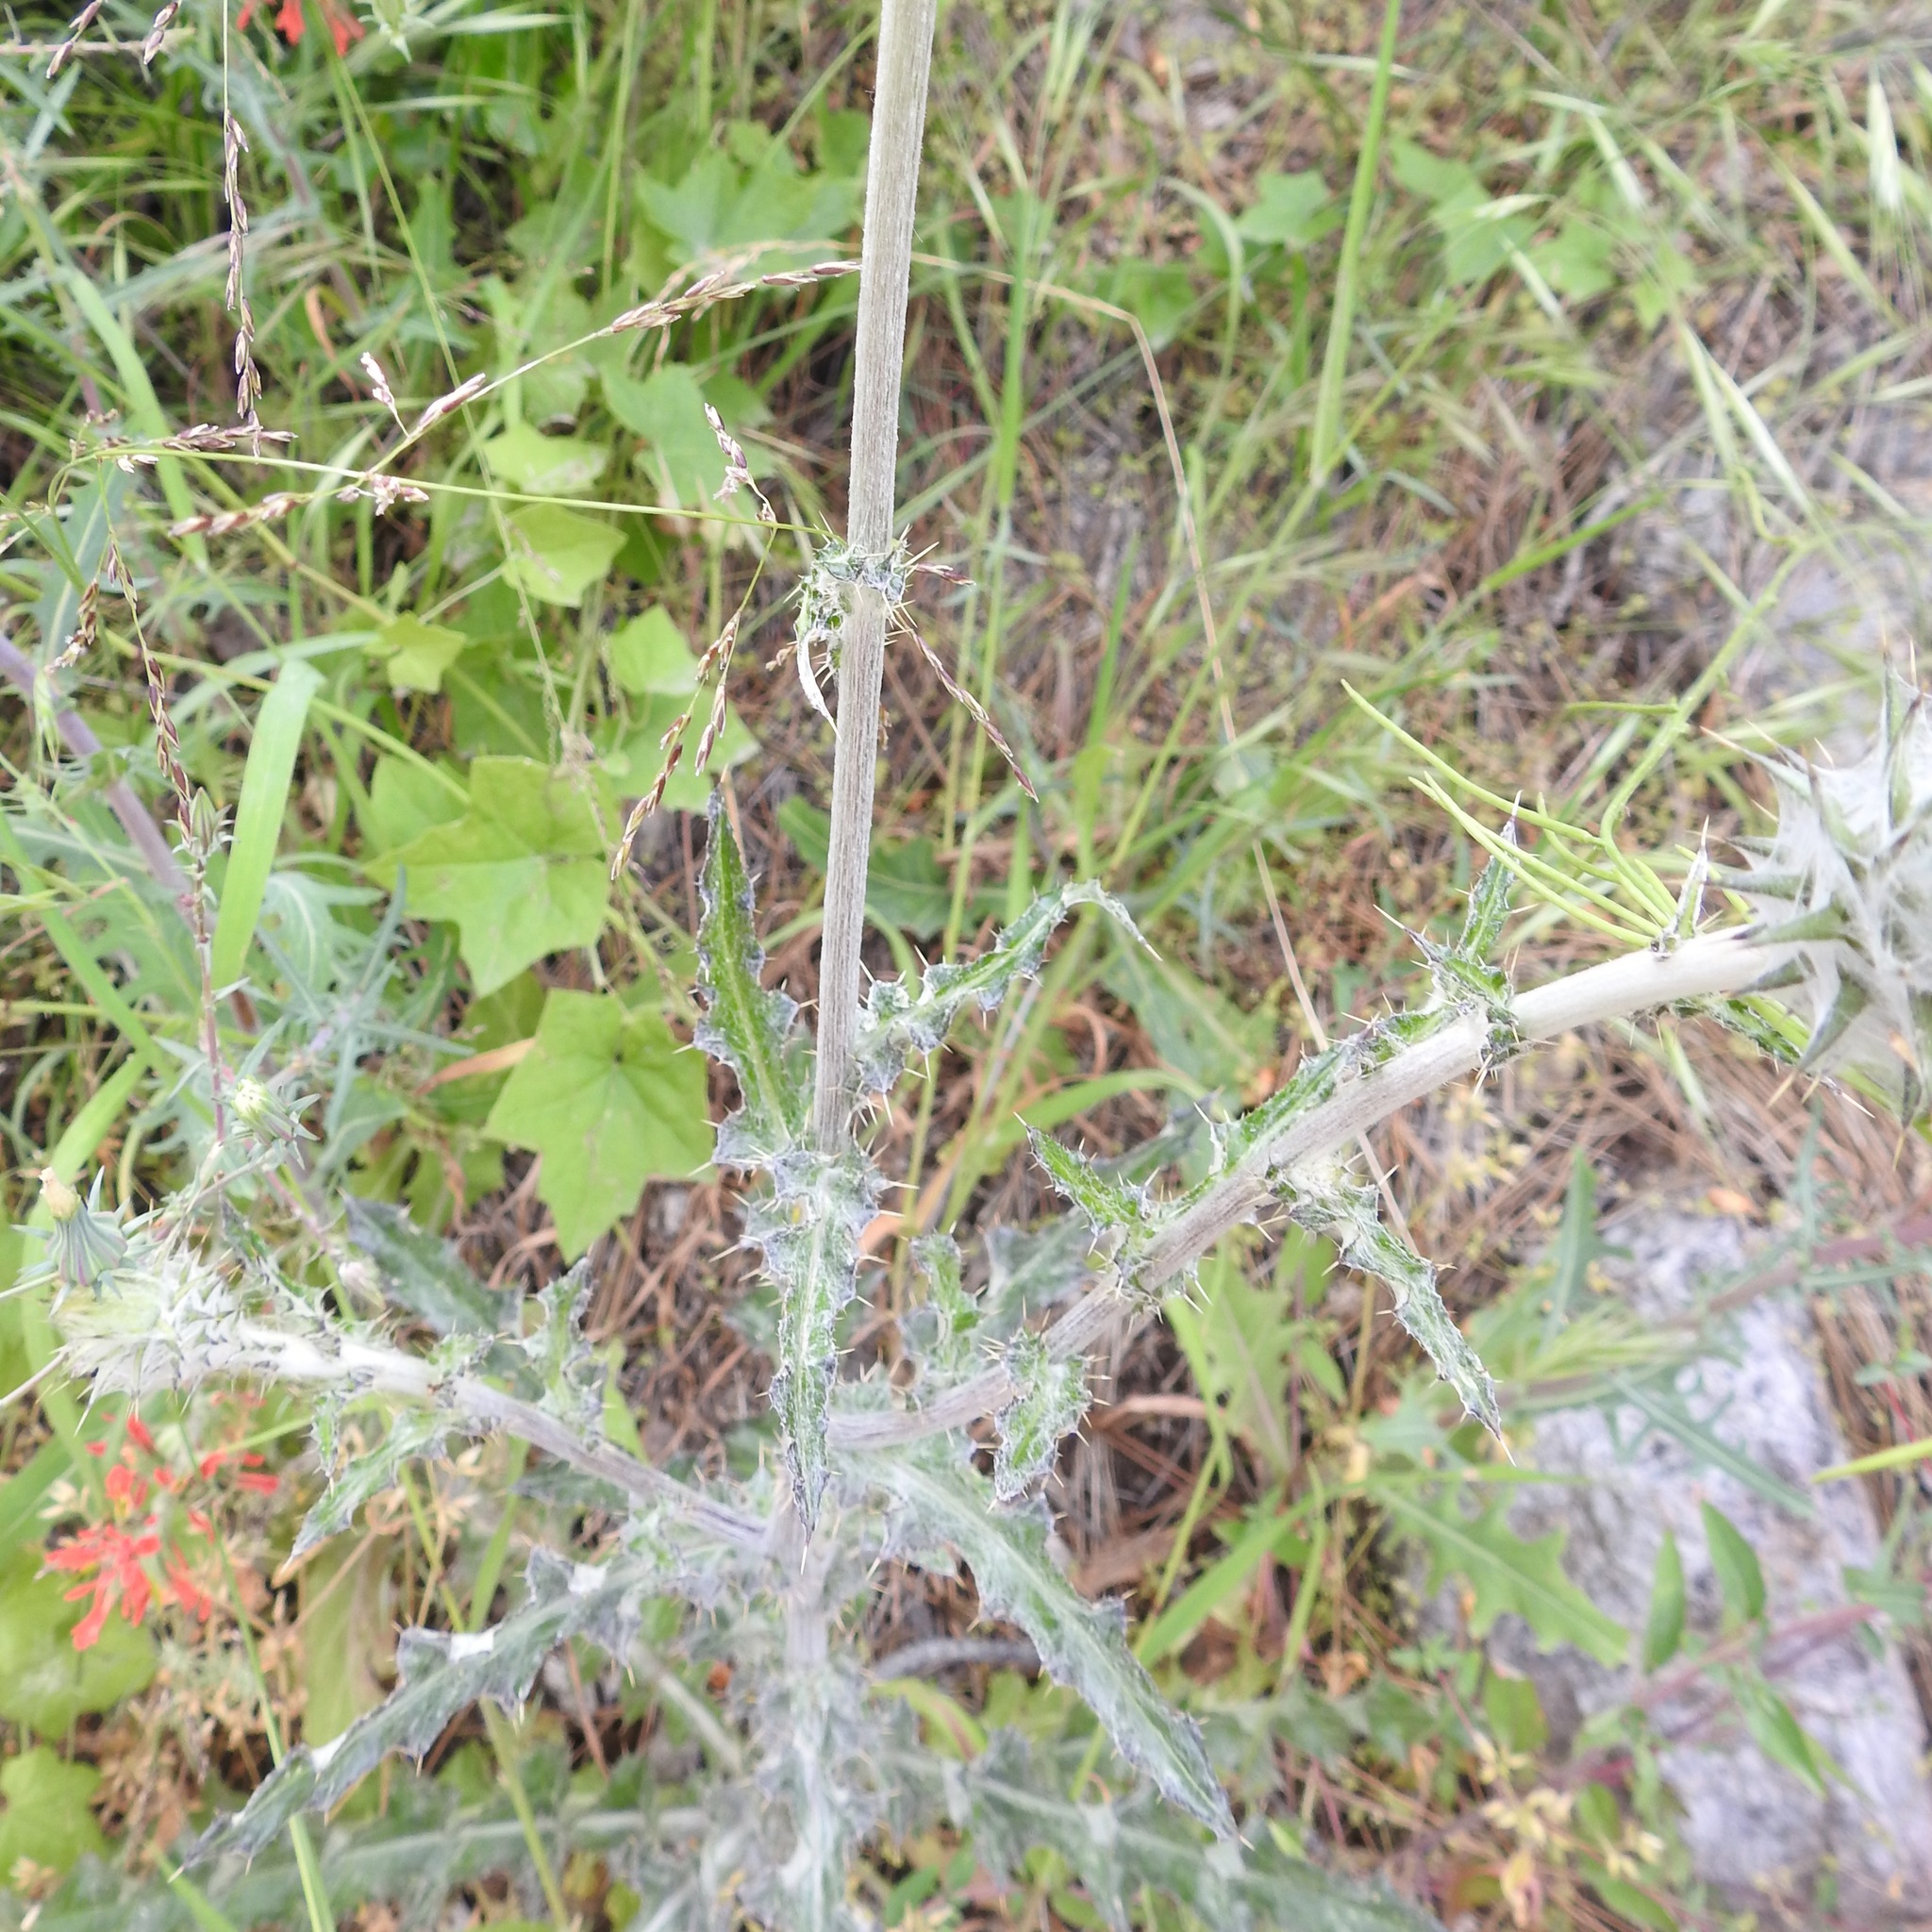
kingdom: Plantae
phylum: Tracheophyta
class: Magnoliopsida
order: Asterales
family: Asteraceae
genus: Cirsium
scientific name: Cirsium occidentale
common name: Western thistle
